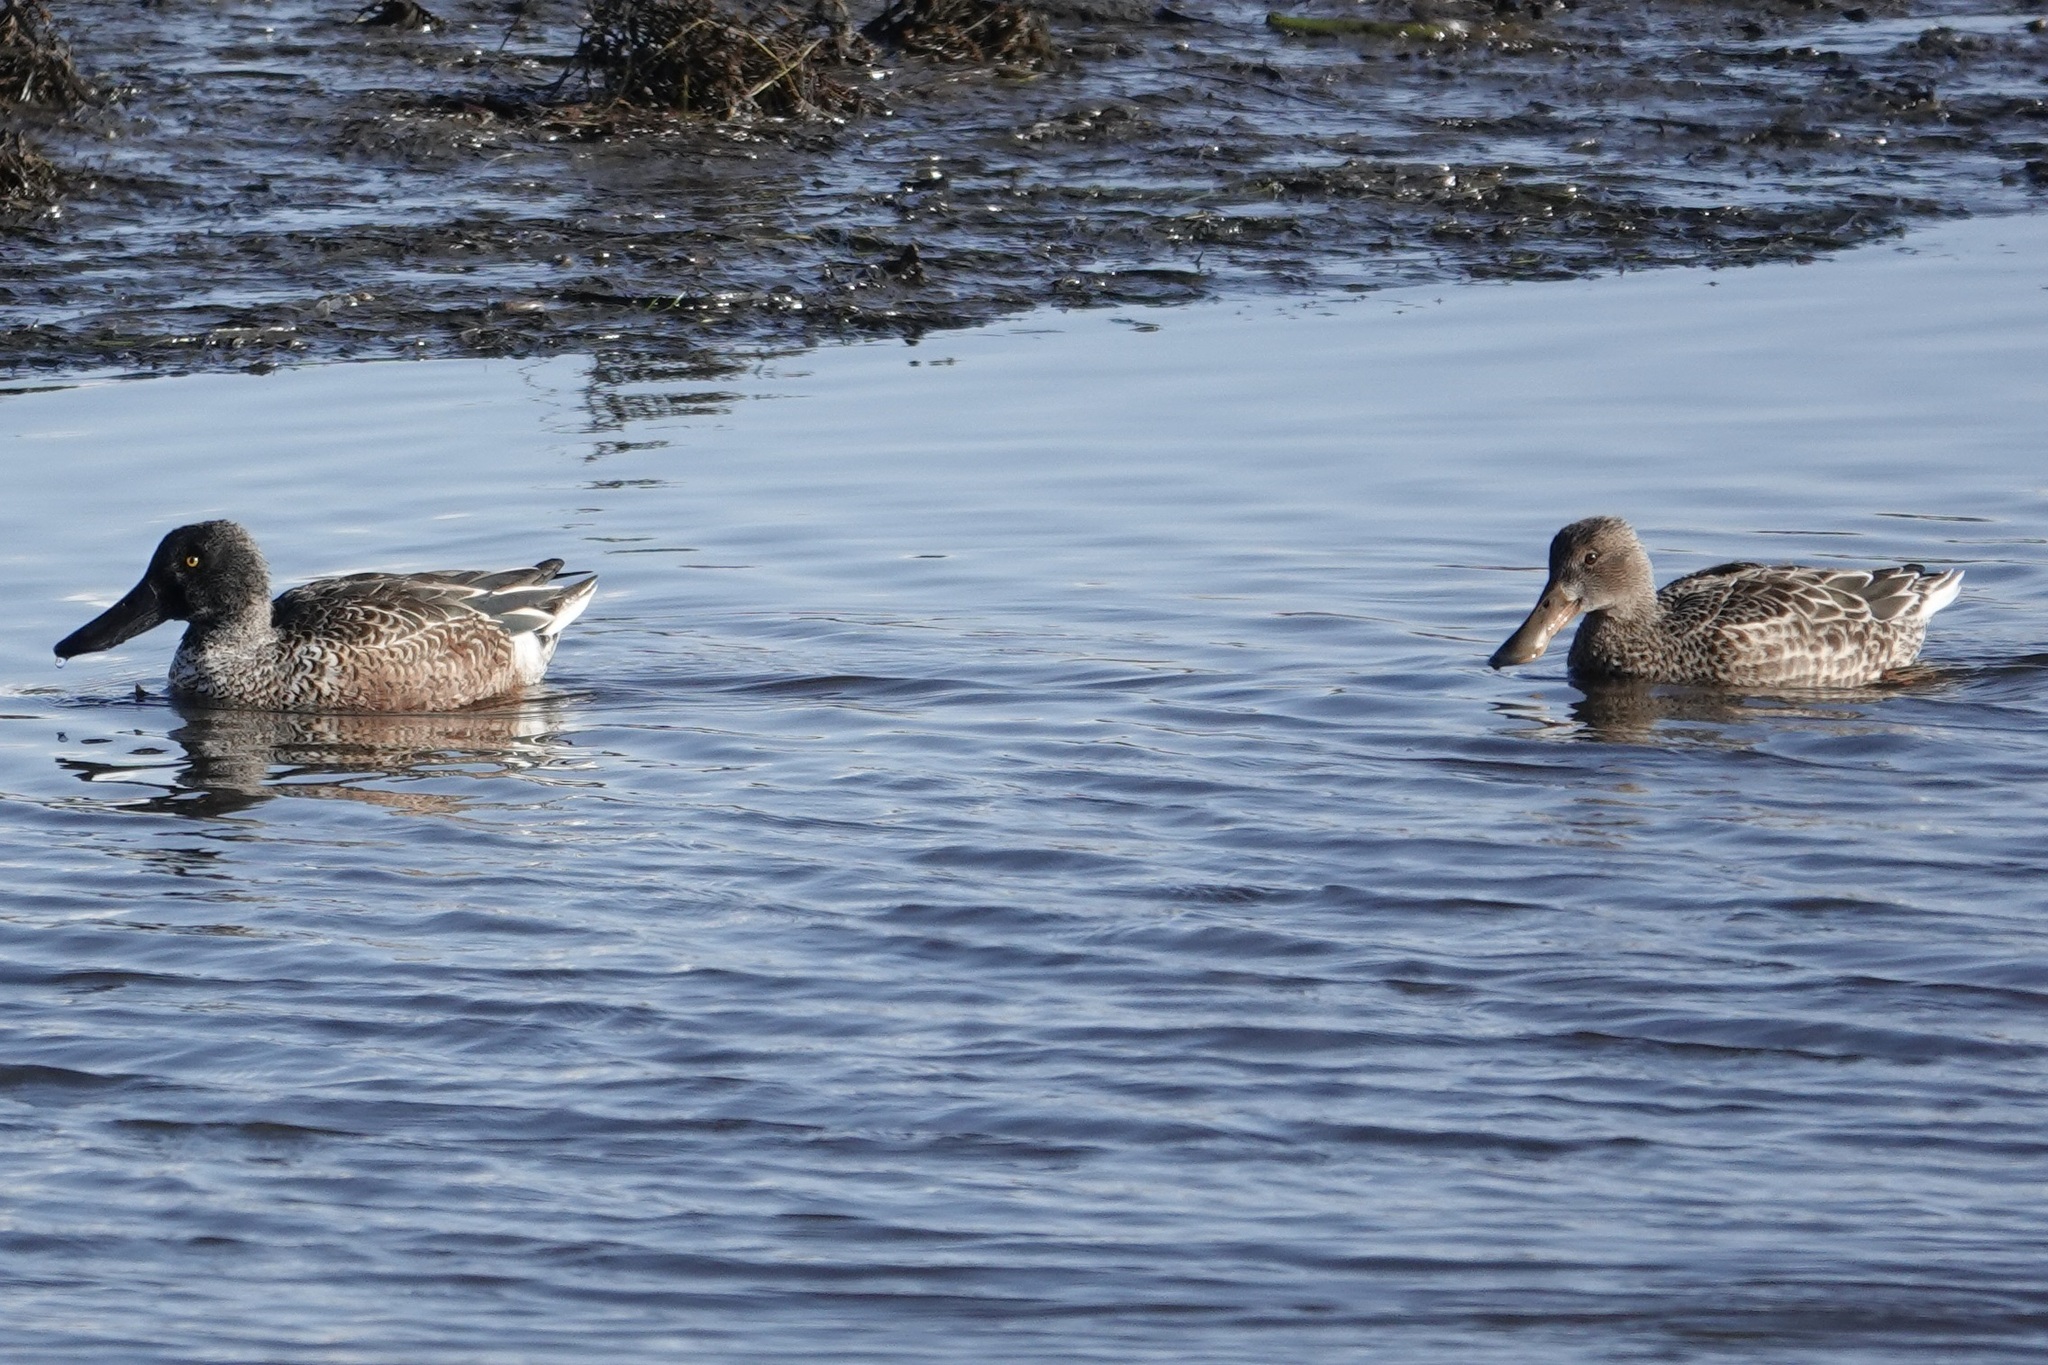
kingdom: Animalia
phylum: Chordata
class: Aves
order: Anseriformes
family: Anatidae
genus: Spatula
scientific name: Spatula clypeata
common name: Northern shoveler
